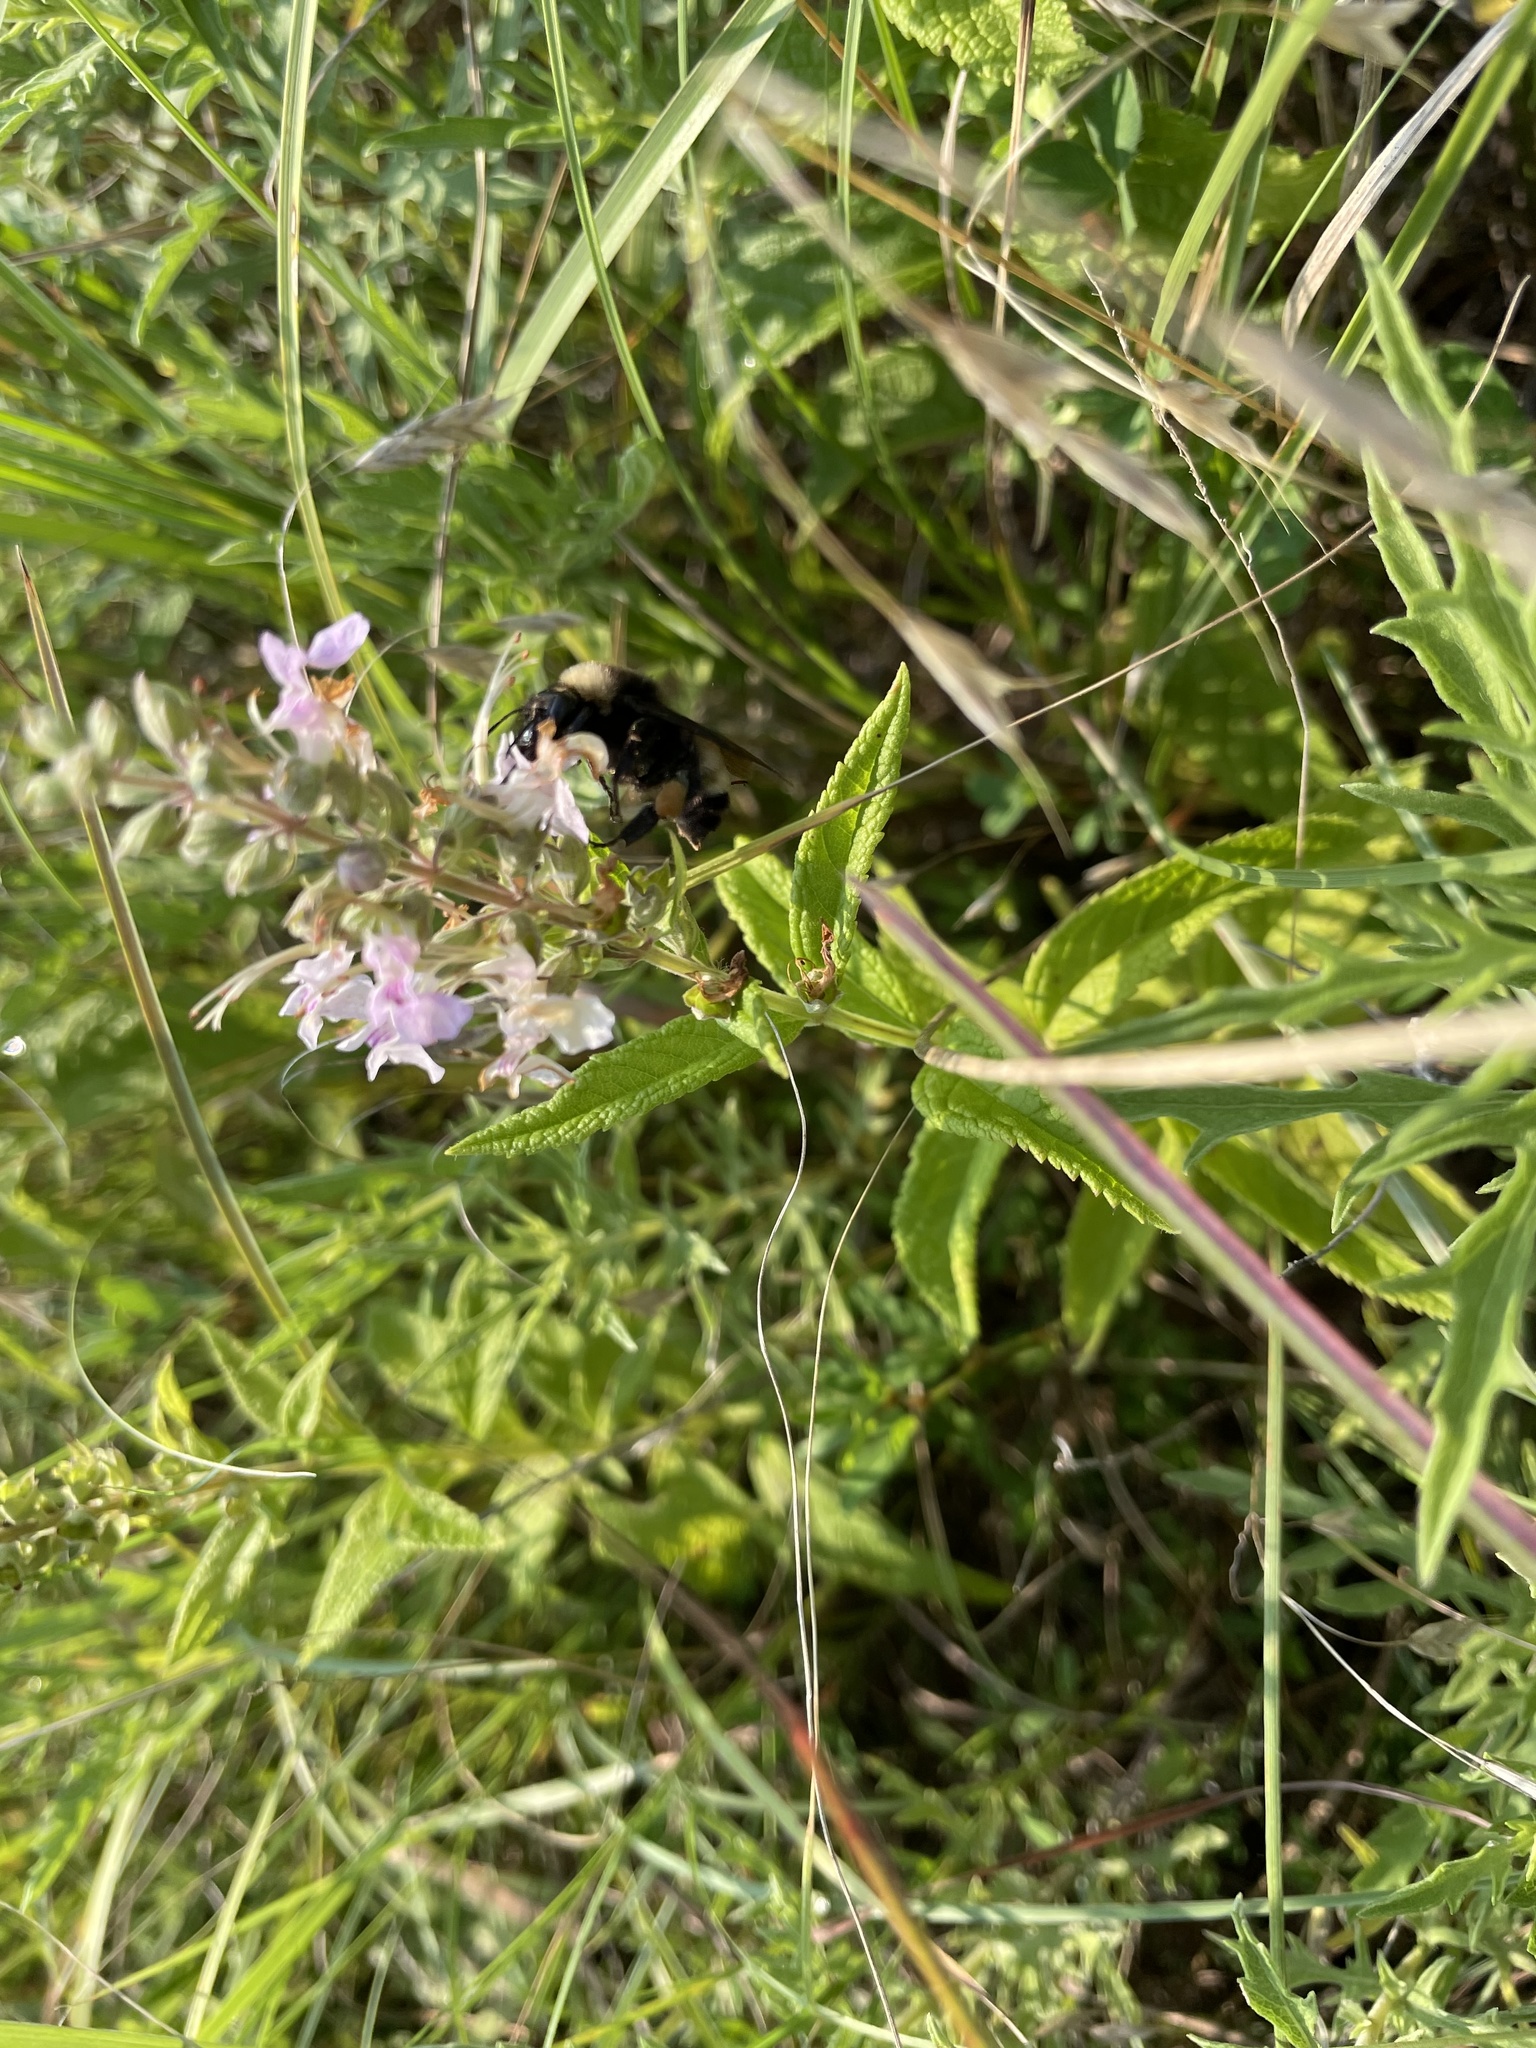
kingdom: Animalia
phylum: Arthropoda
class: Insecta
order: Hymenoptera
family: Apidae
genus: Bombus
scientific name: Bombus pensylvanicus
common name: Bumble bee
